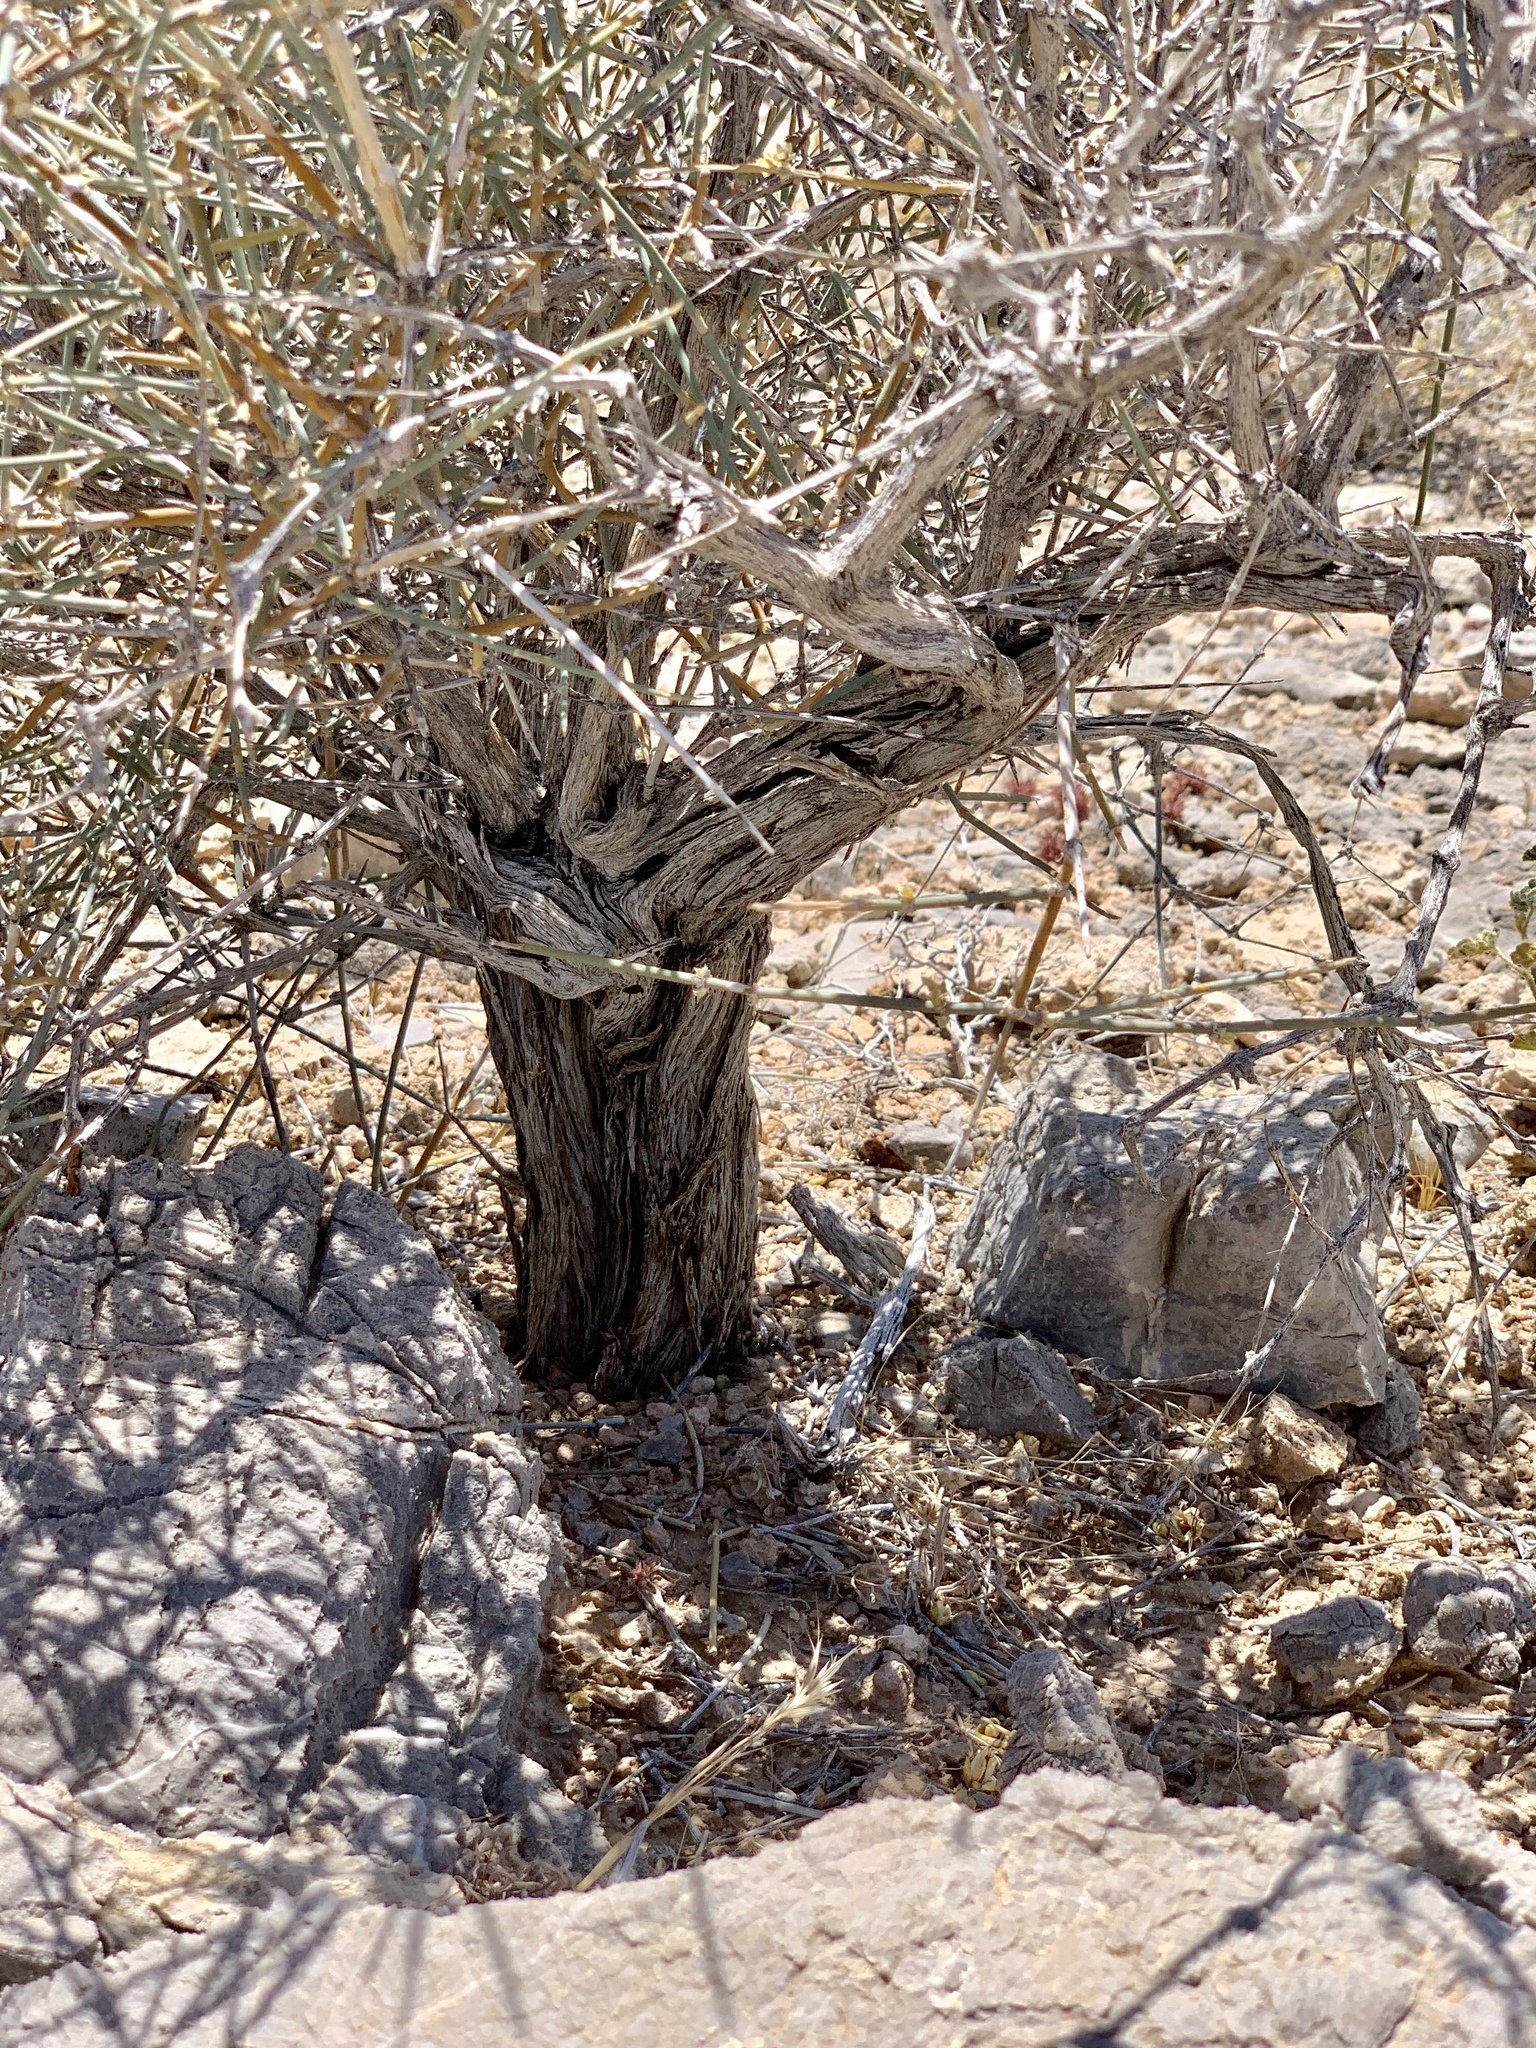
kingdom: Plantae
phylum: Tracheophyta
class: Gnetopsida
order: Ephedrales
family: Ephedraceae
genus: Ephedra
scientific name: Ephedra nevadensis
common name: Gray ephedra
